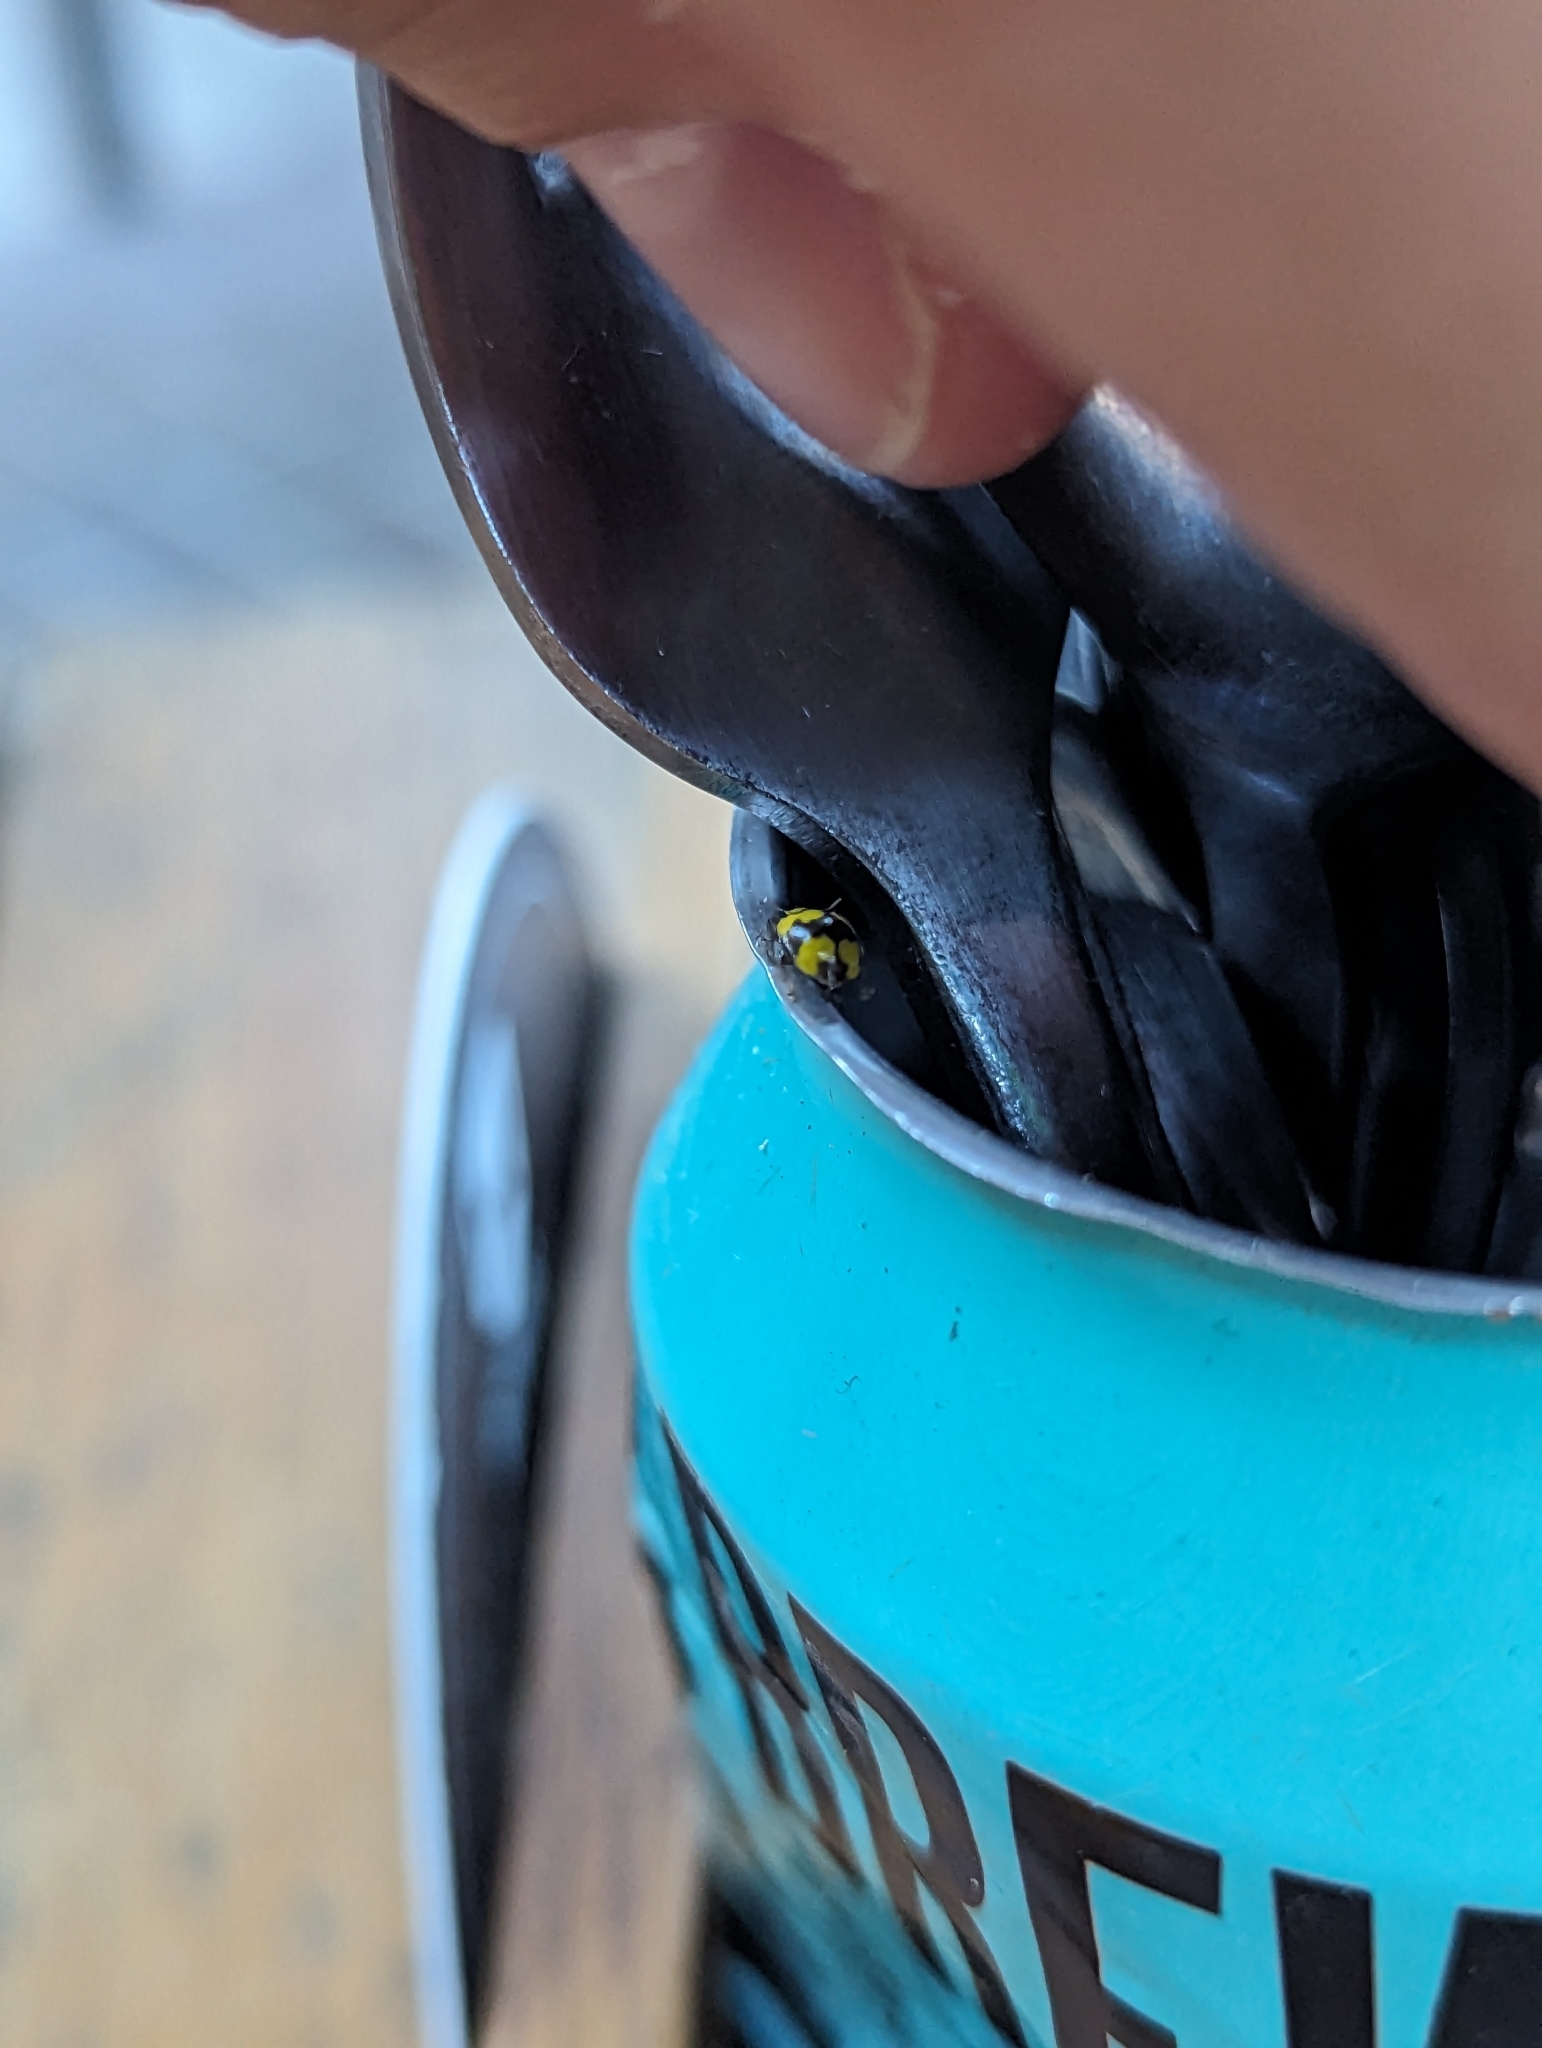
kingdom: Animalia
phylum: Arthropoda
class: Insecta
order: Coleoptera
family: Coccinellidae
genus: Illeis
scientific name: Illeis galbula
